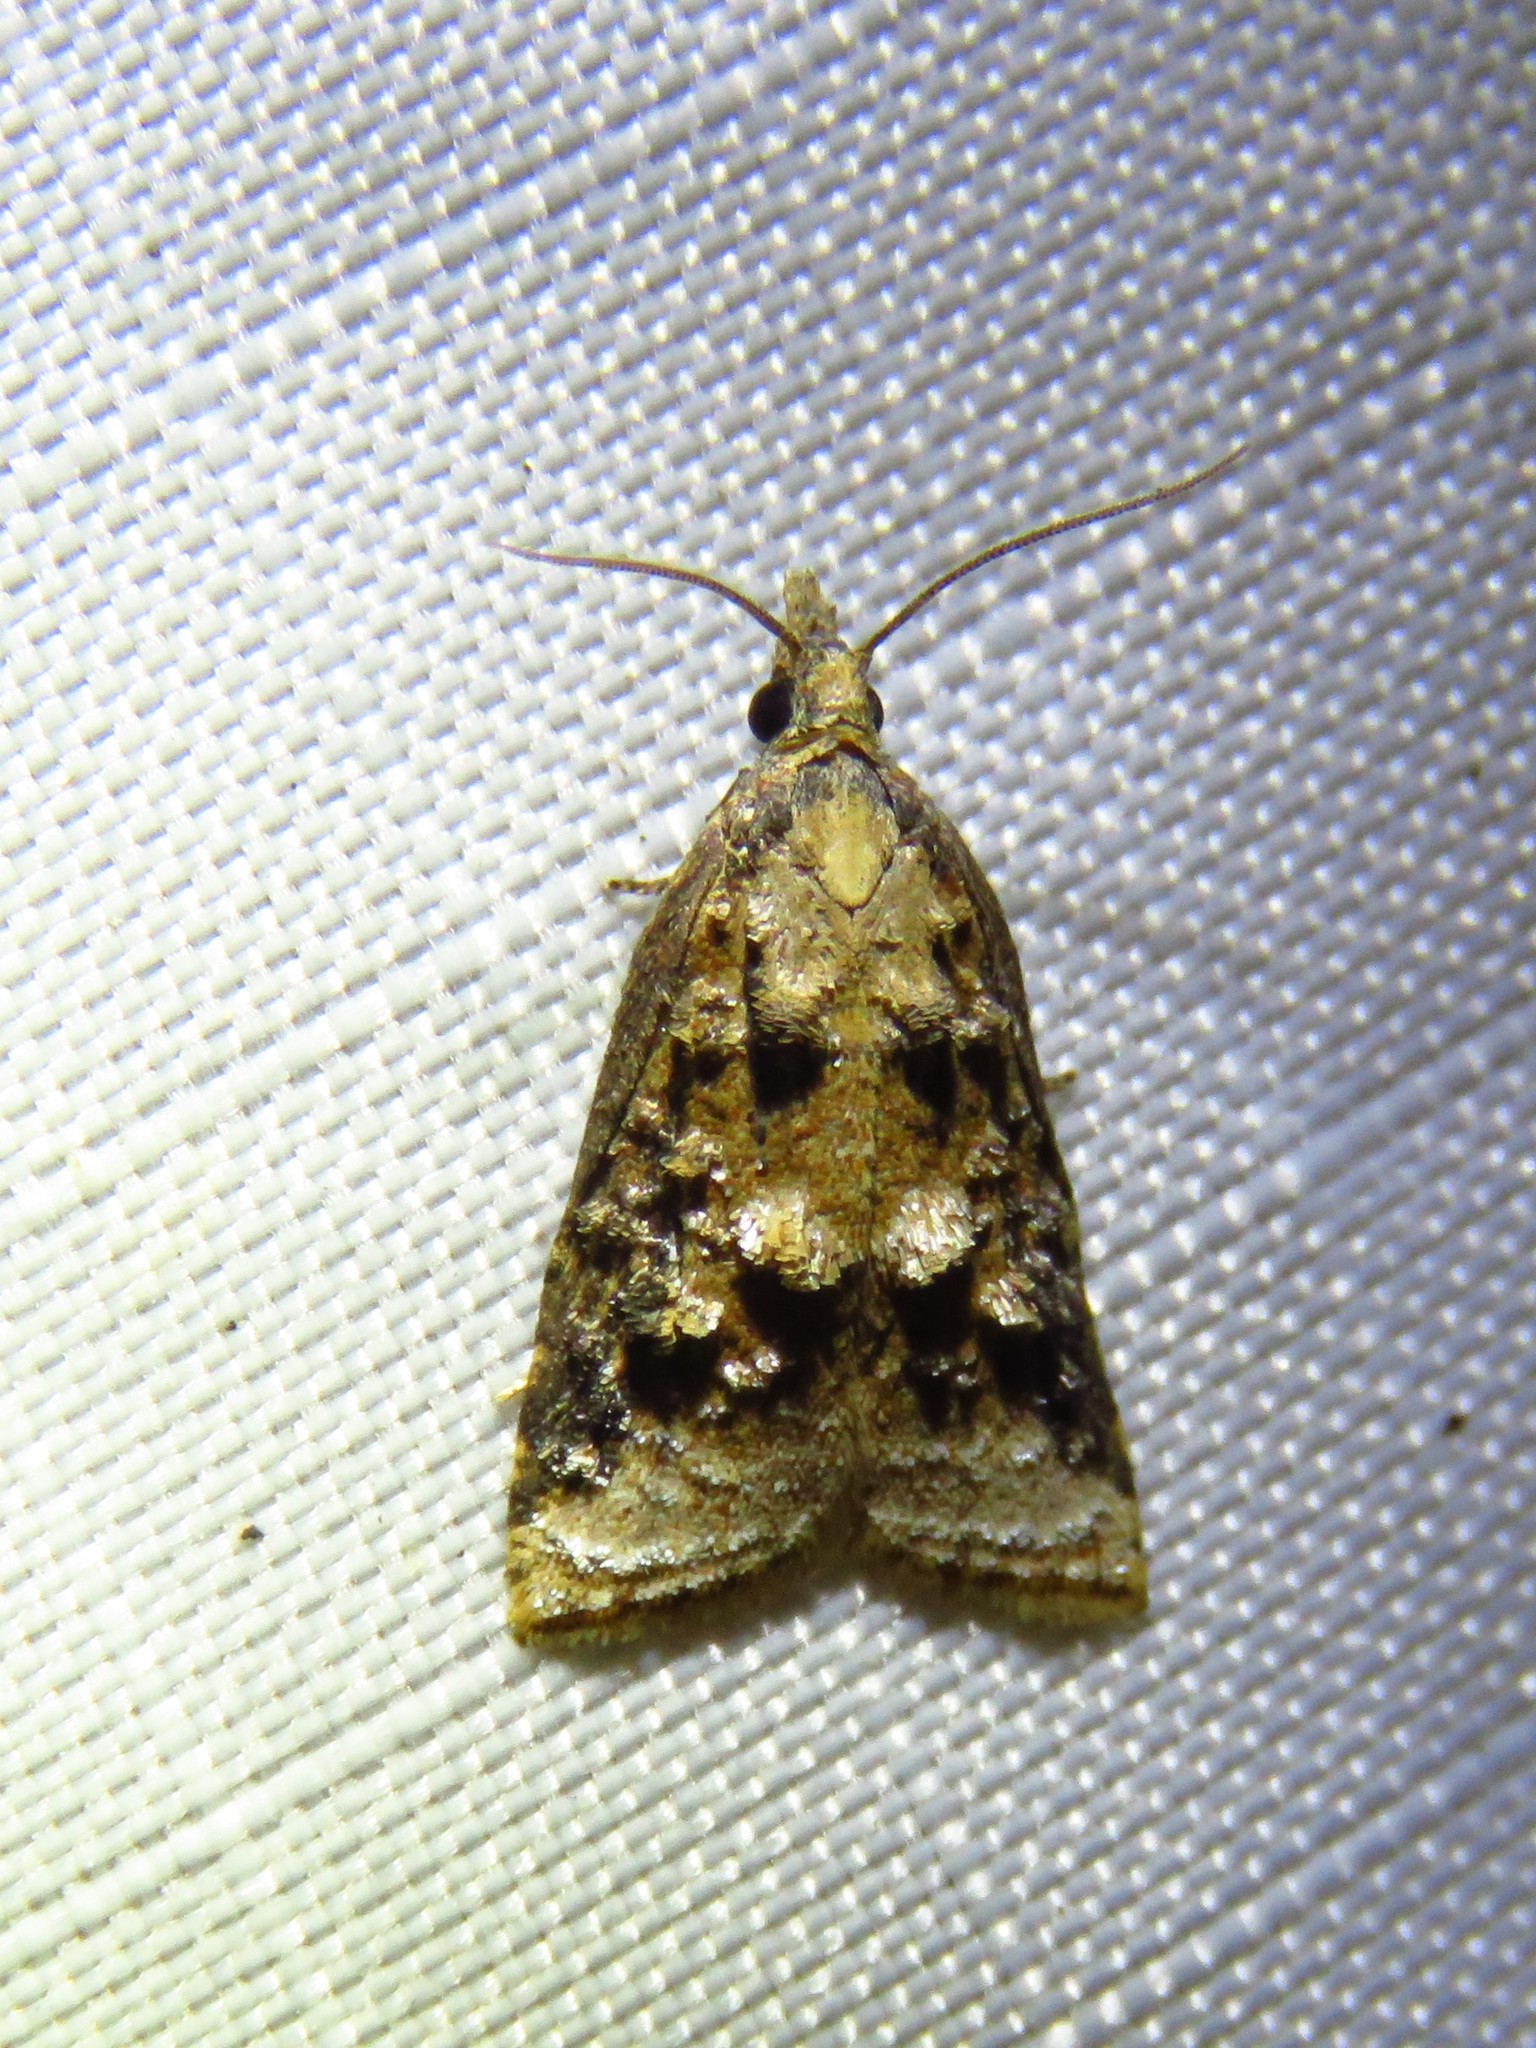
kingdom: Animalia
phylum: Arthropoda
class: Insecta
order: Lepidoptera
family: Tortricidae
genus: Platynota
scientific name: Platynota rostrana
